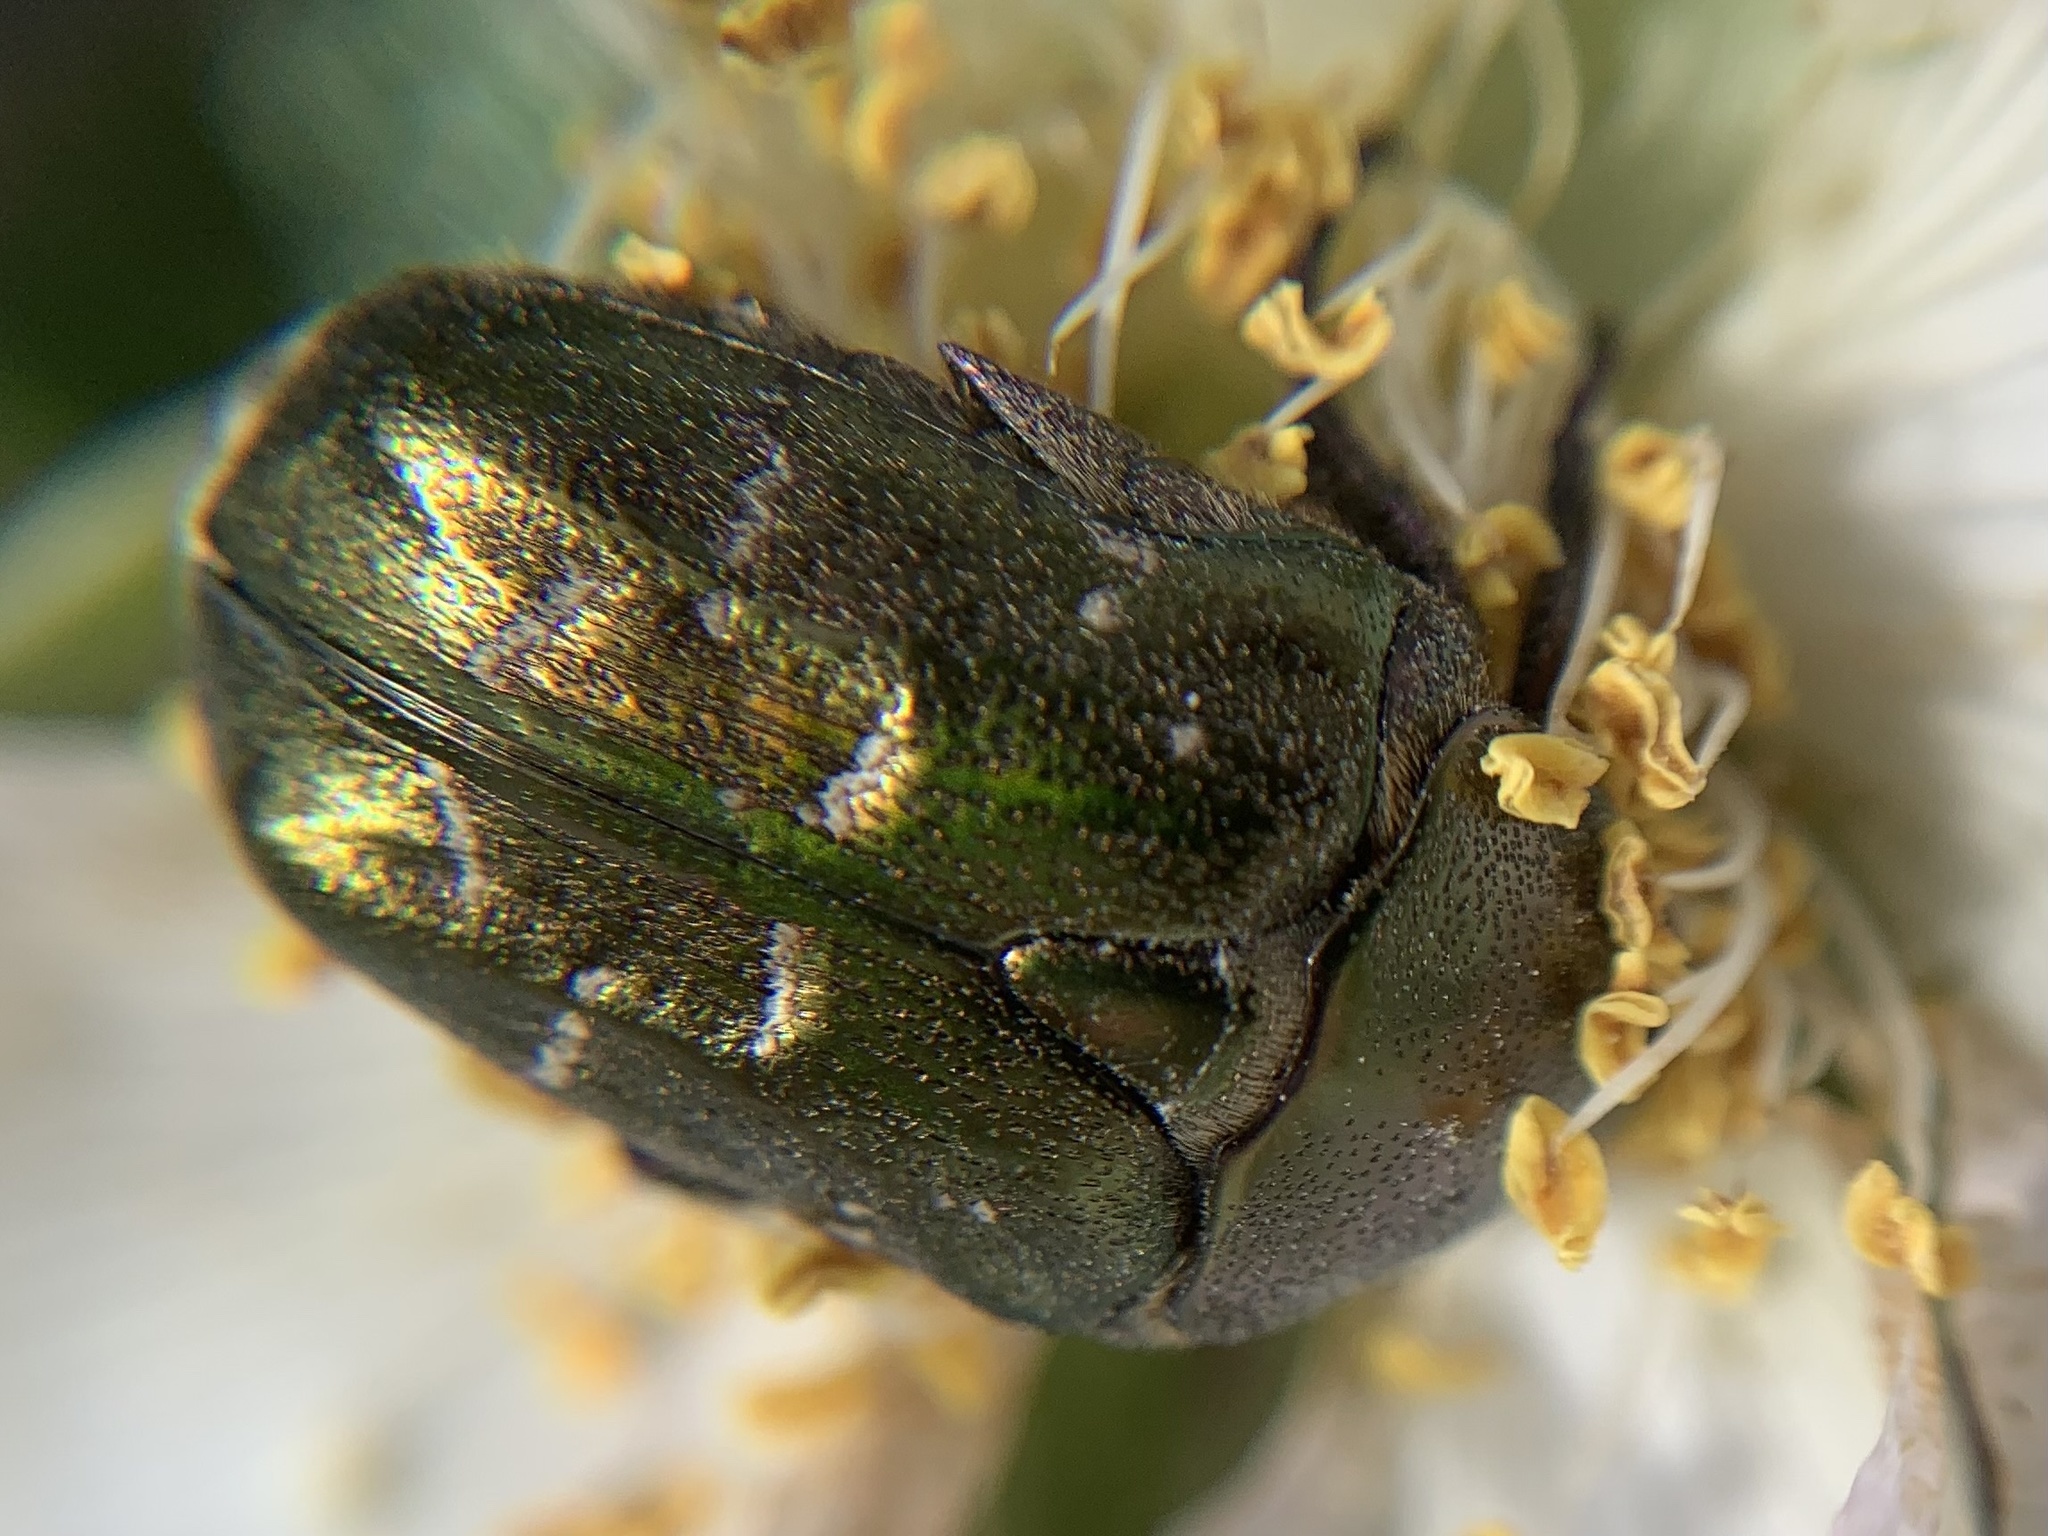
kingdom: Animalia
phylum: Arthropoda
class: Insecta
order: Coleoptera
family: Scarabaeidae
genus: Protaetia
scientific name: Protaetia cuprea
